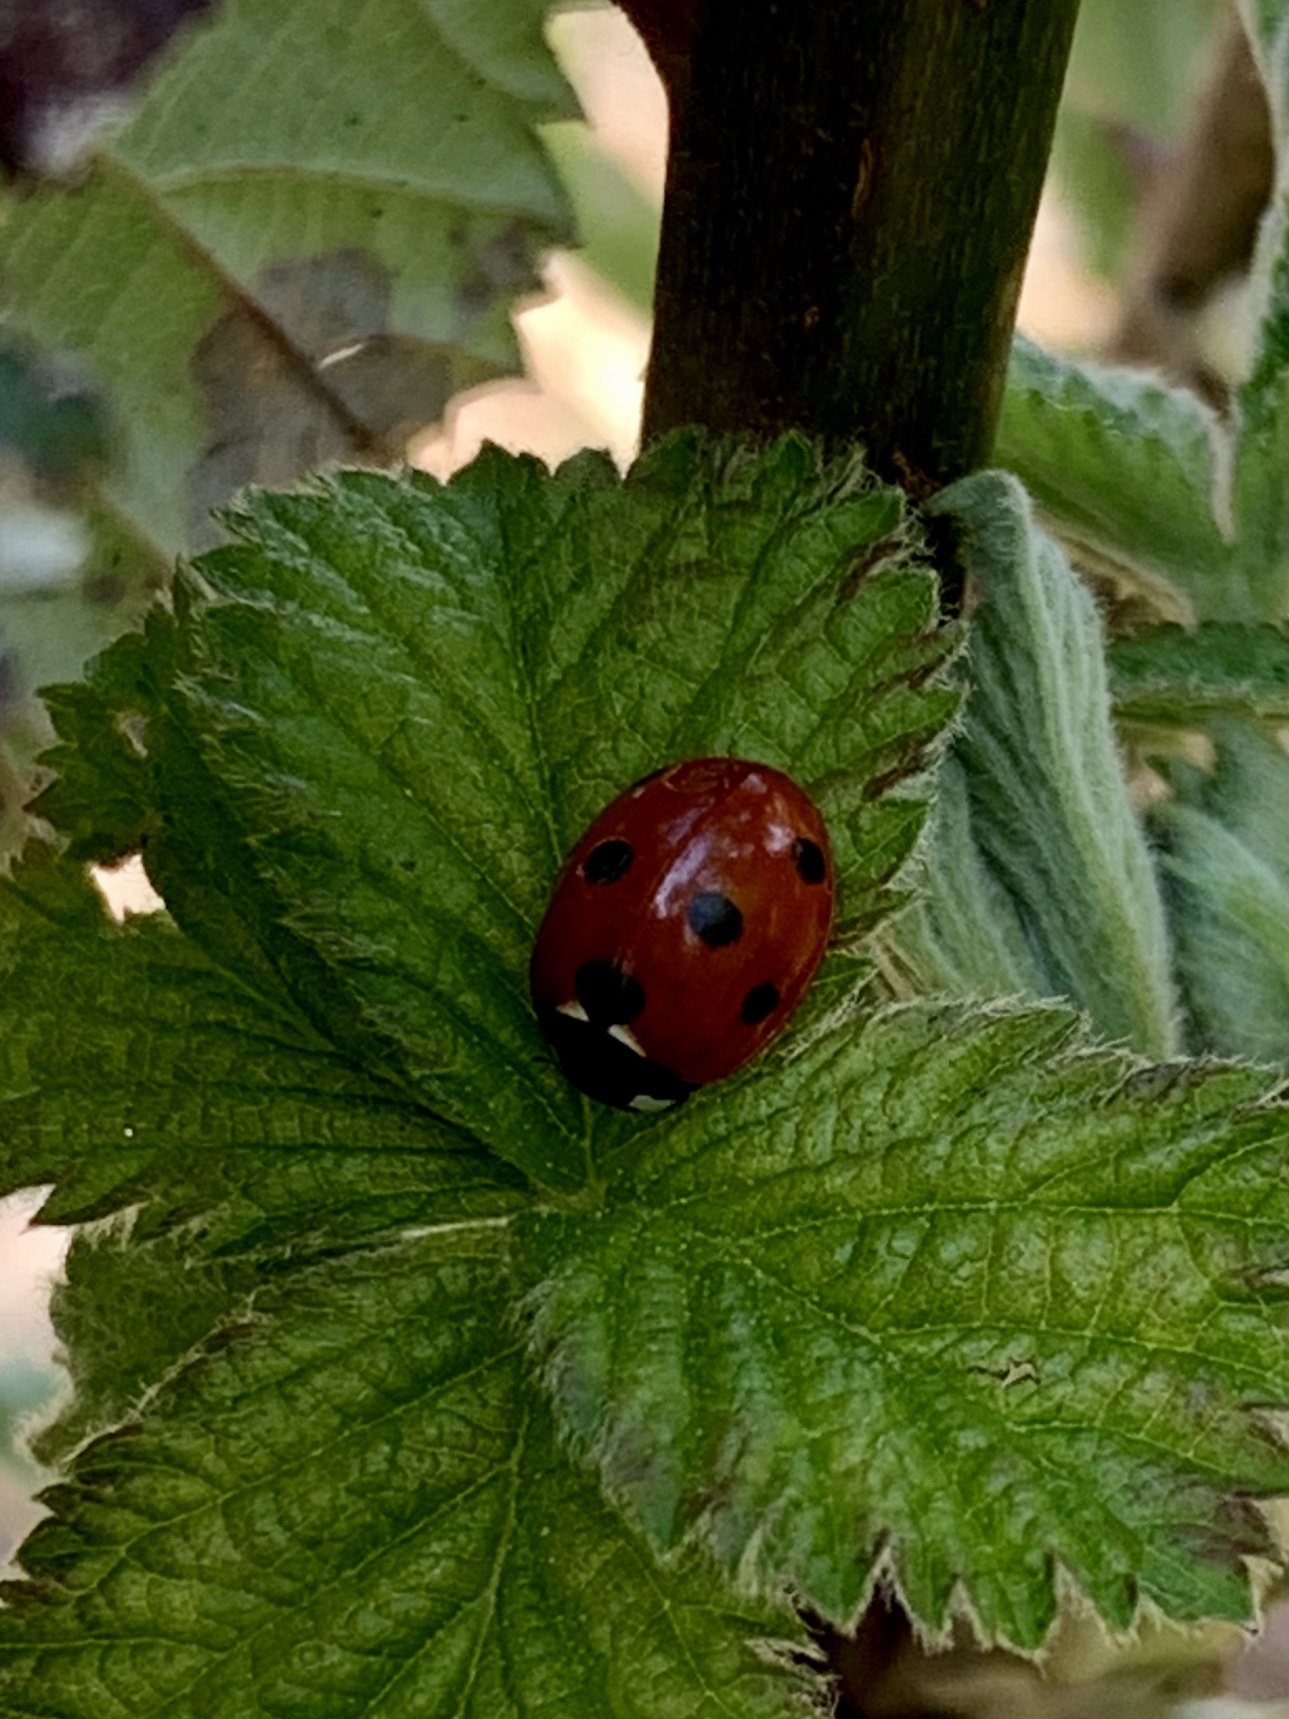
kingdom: Animalia
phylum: Arthropoda
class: Insecta
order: Coleoptera
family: Coccinellidae
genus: Coccinella
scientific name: Coccinella septempunctata
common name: Sevenspotted lady beetle
